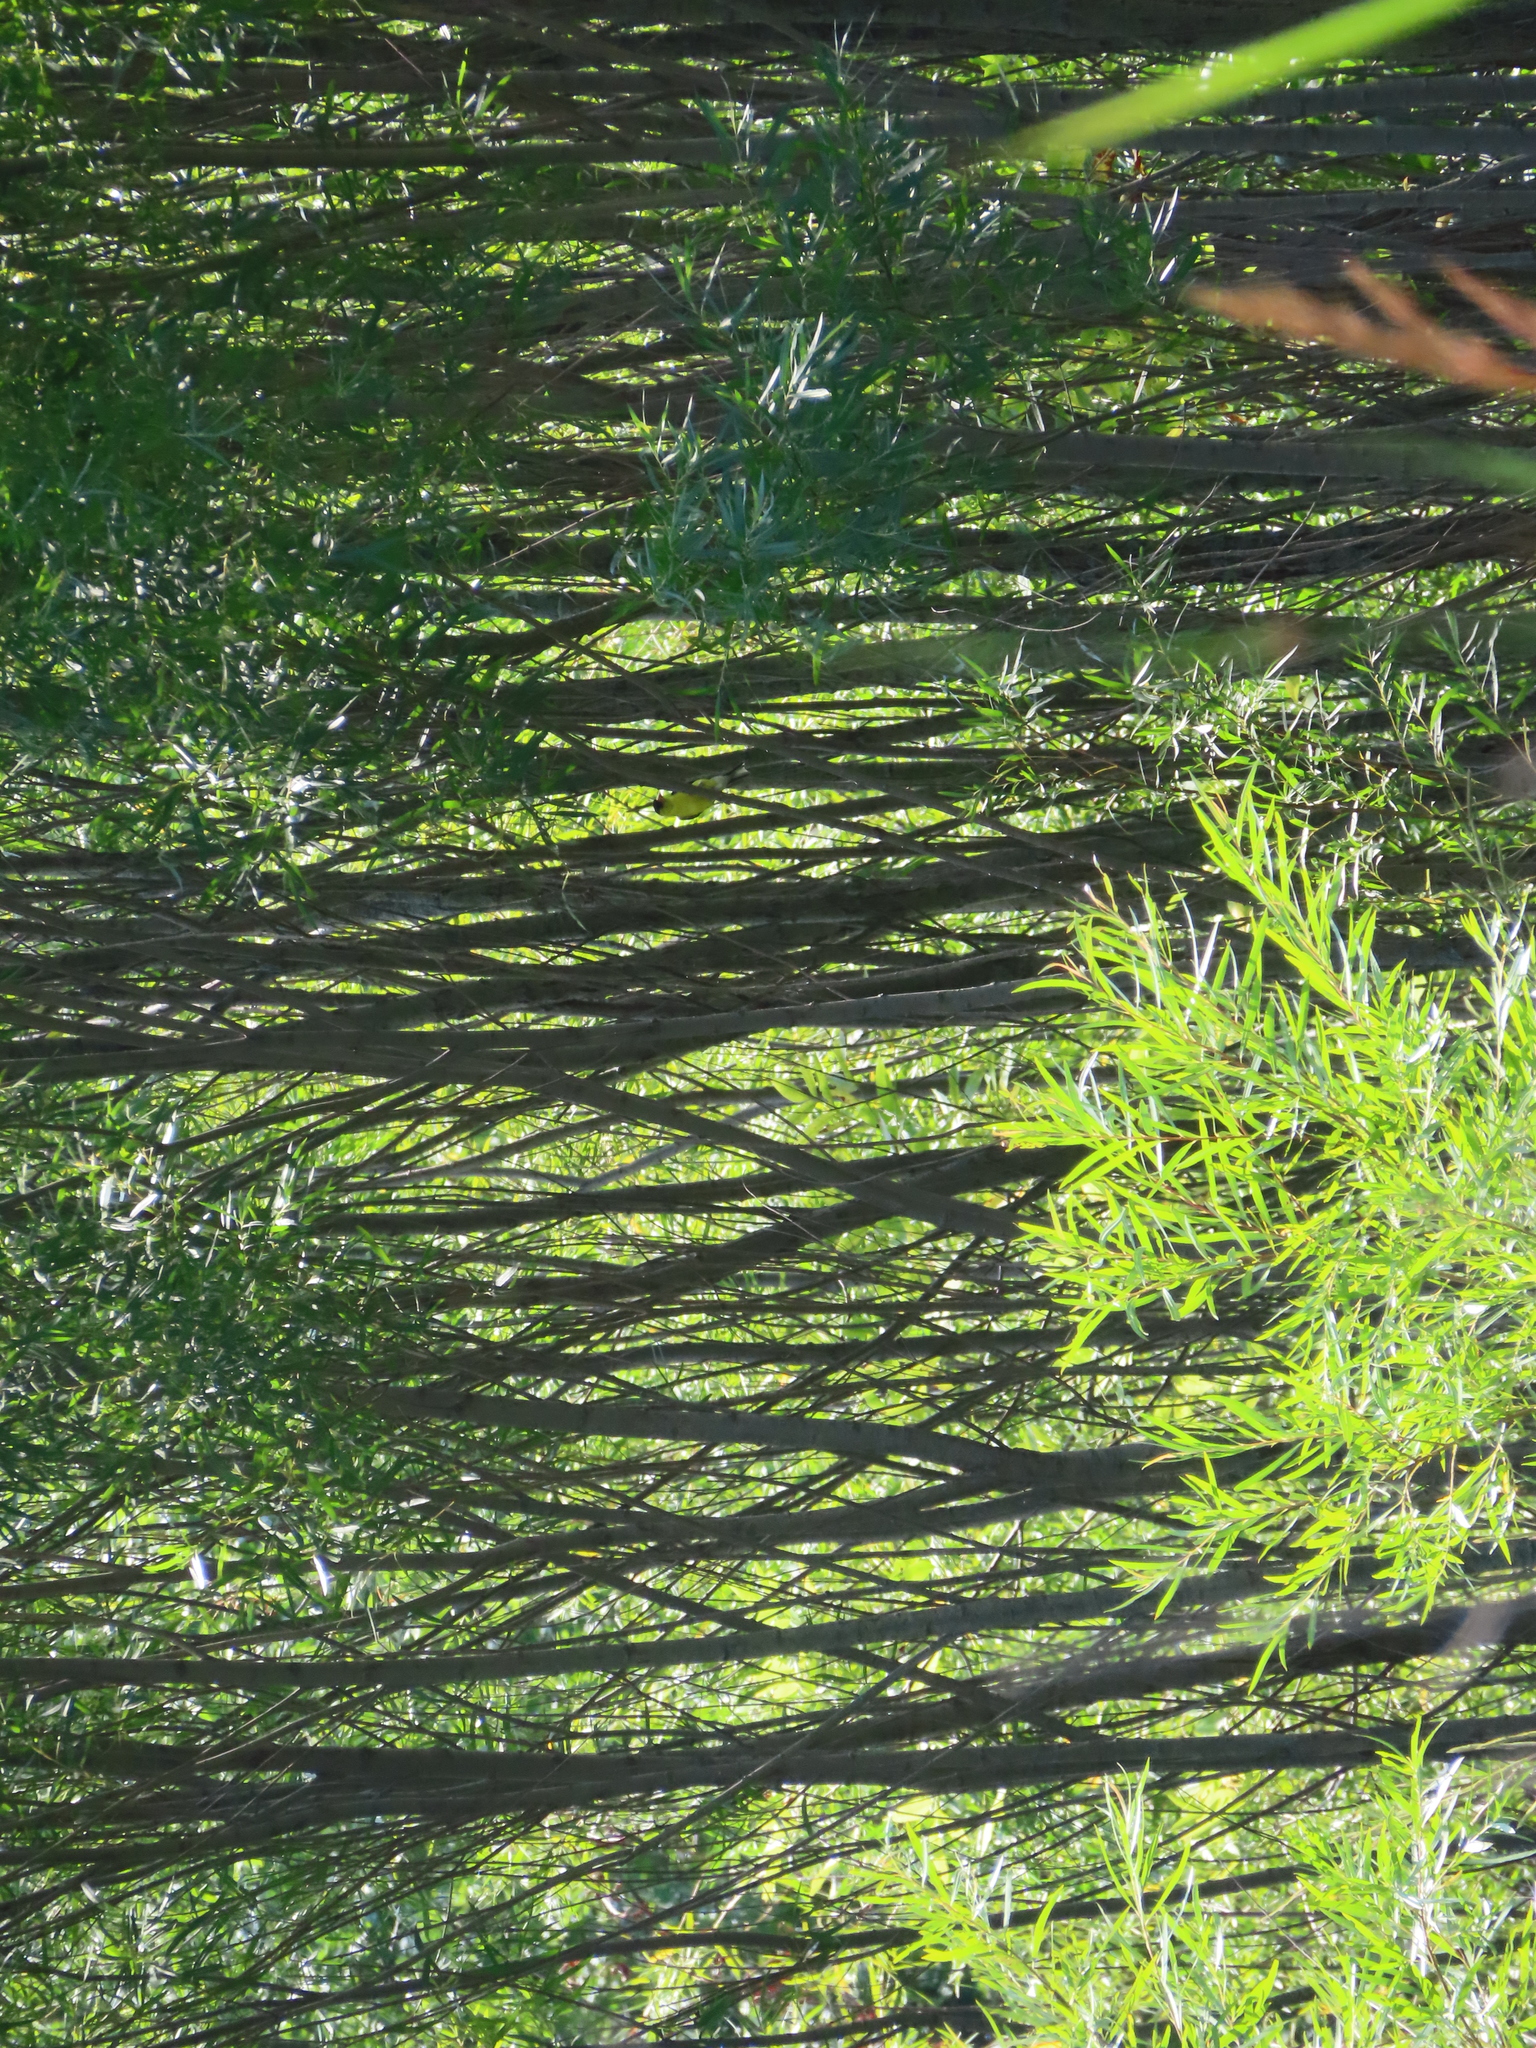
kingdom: Animalia
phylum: Chordata
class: Aves
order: Passeriformes
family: Fringillidae
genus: Spinus
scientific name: Spinus tristis
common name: American goldfinch
